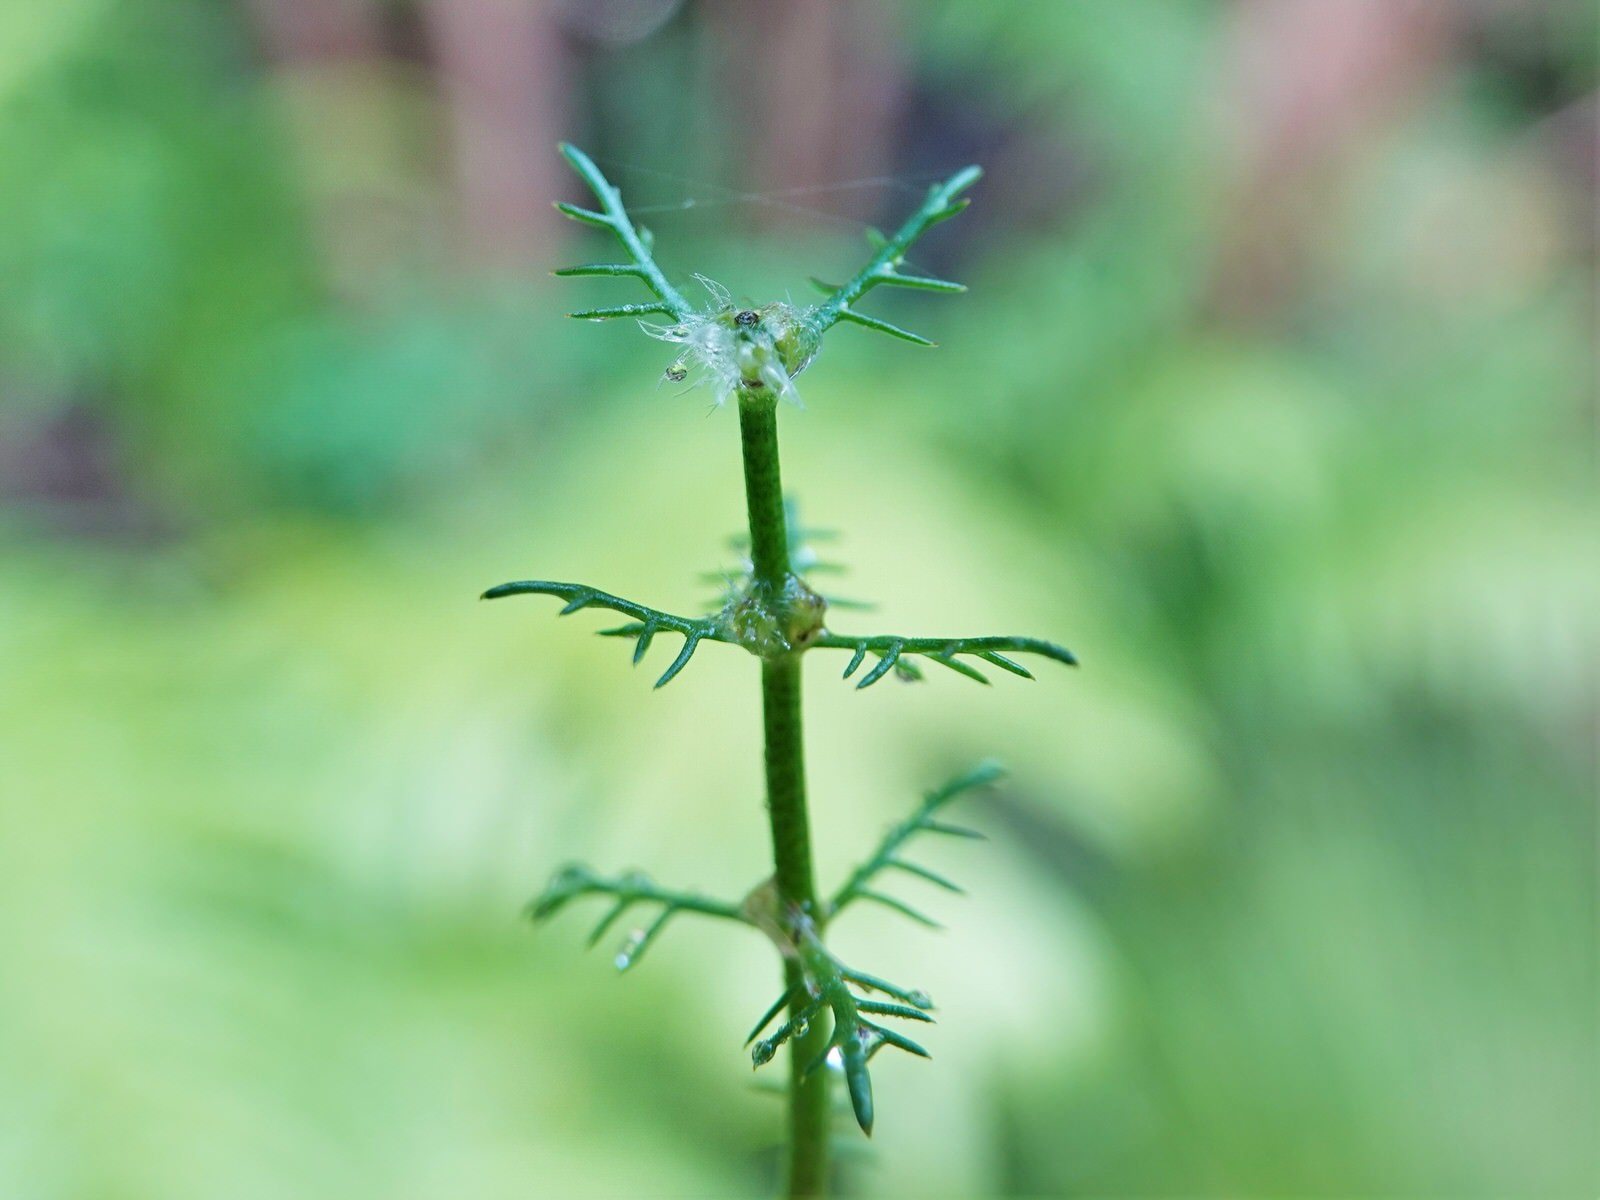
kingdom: Plantae
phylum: Tracheophyta
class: Magnoliopsida
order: Saxifragales
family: Haloragaceae
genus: Myriophyllum
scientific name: Myriophyllum propinquum
